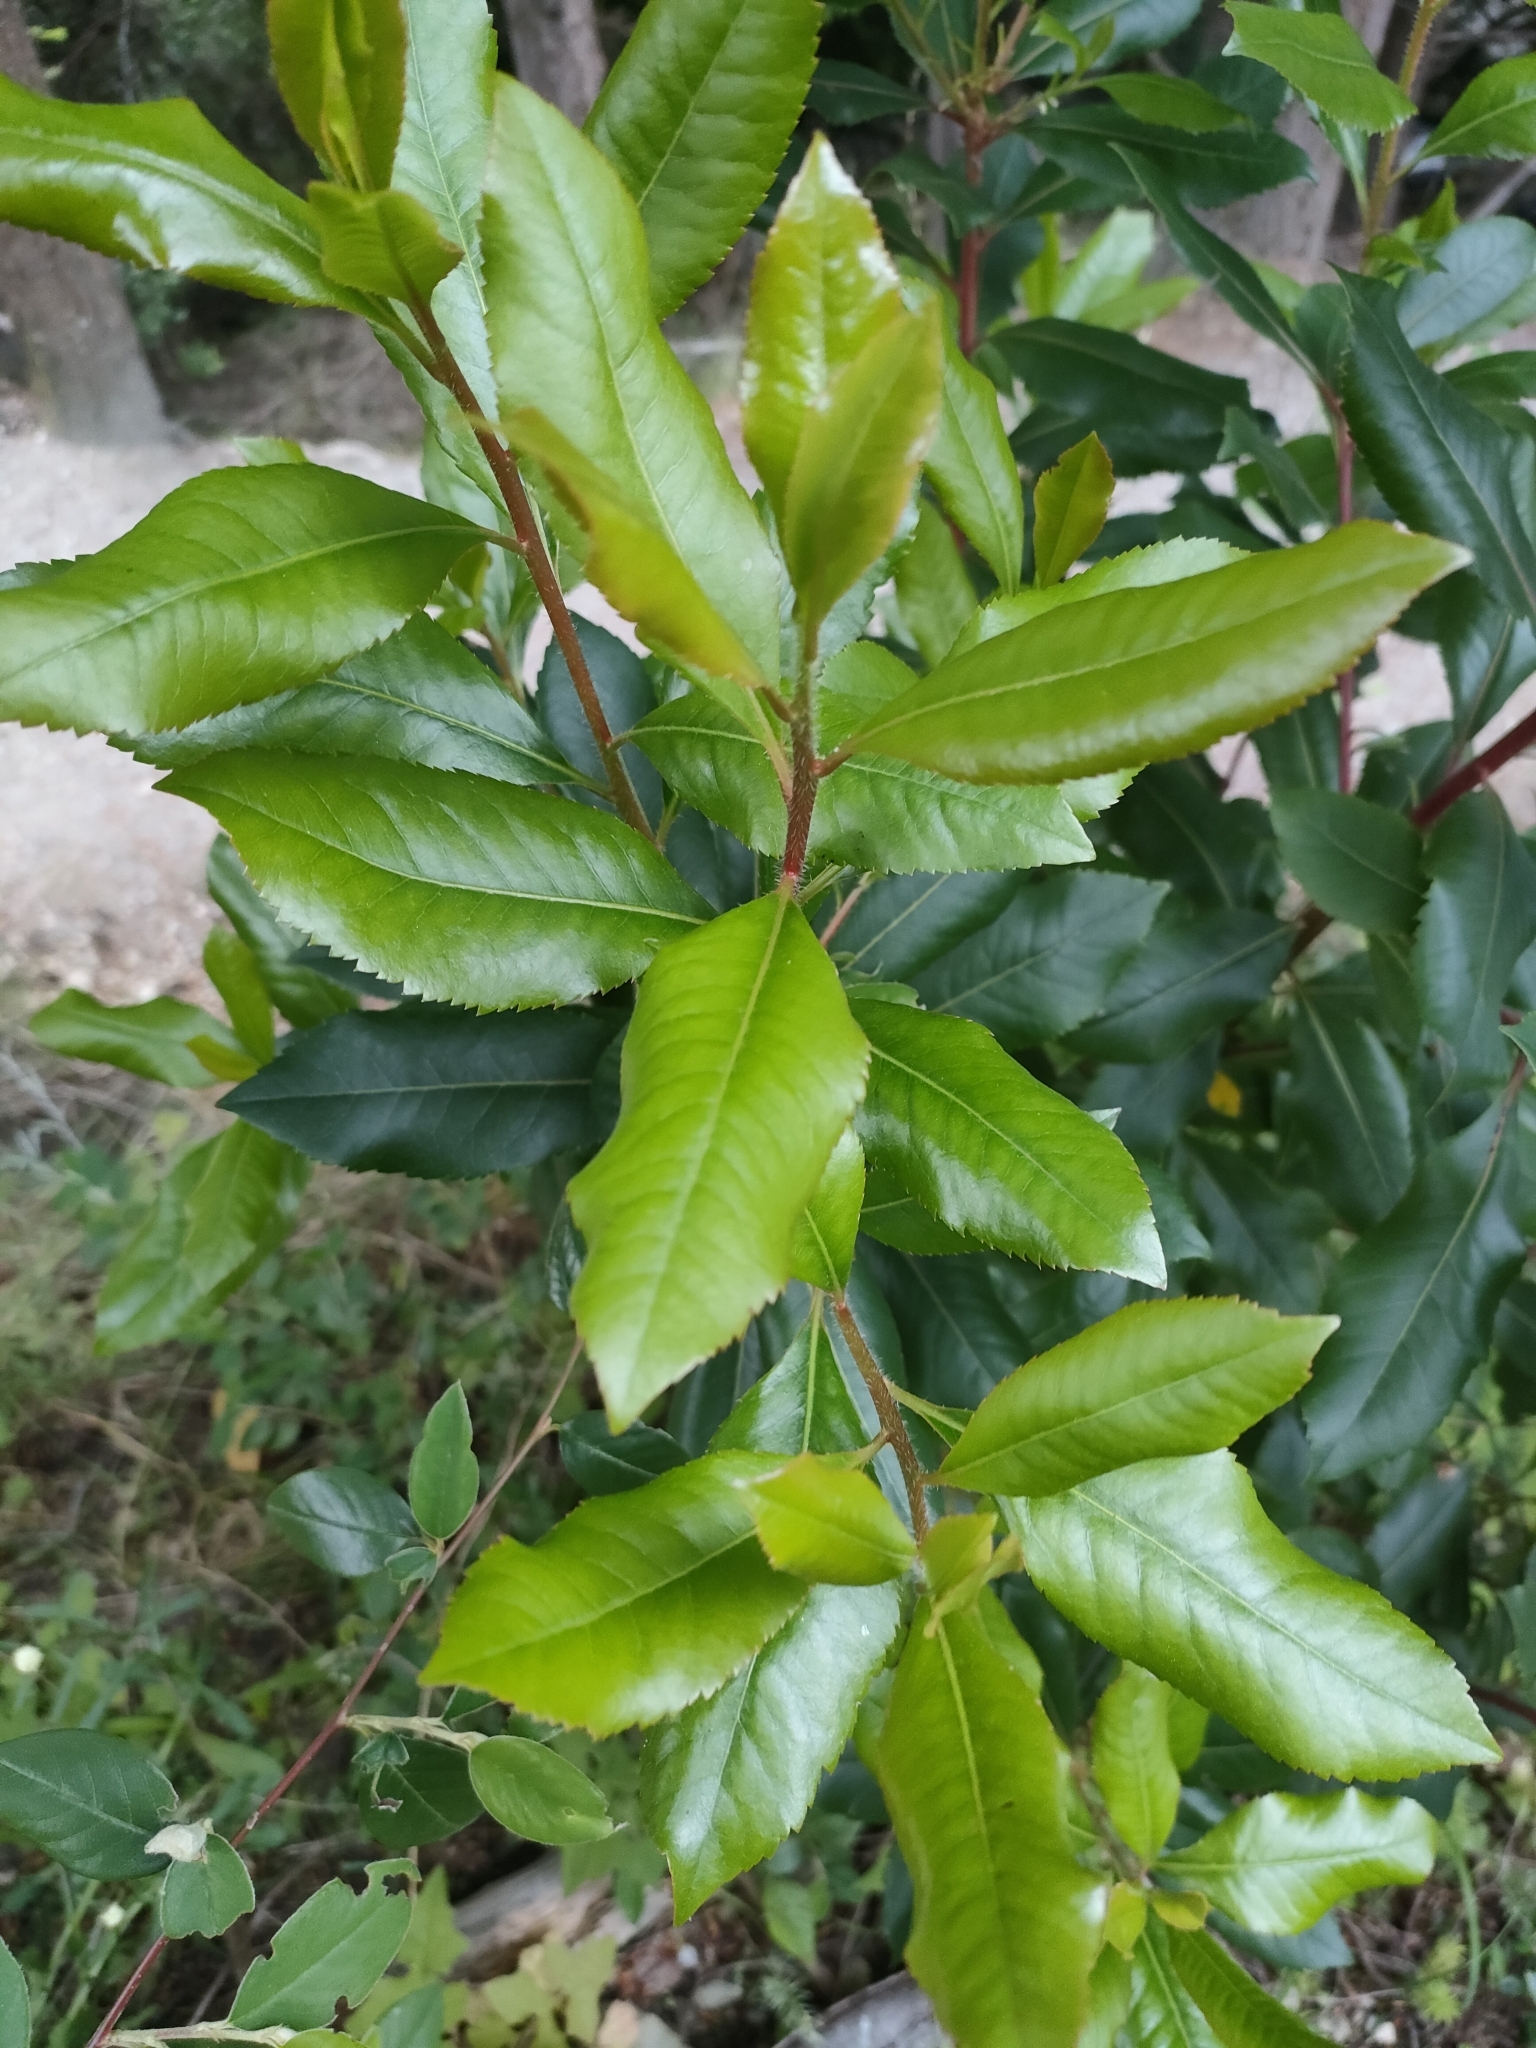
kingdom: Plantae
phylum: Tracheophyta
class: Magnoliopsida
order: Ericales
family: Ericaceae
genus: Arbutus
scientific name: Arbutus unedo
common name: Strawberry-tree
